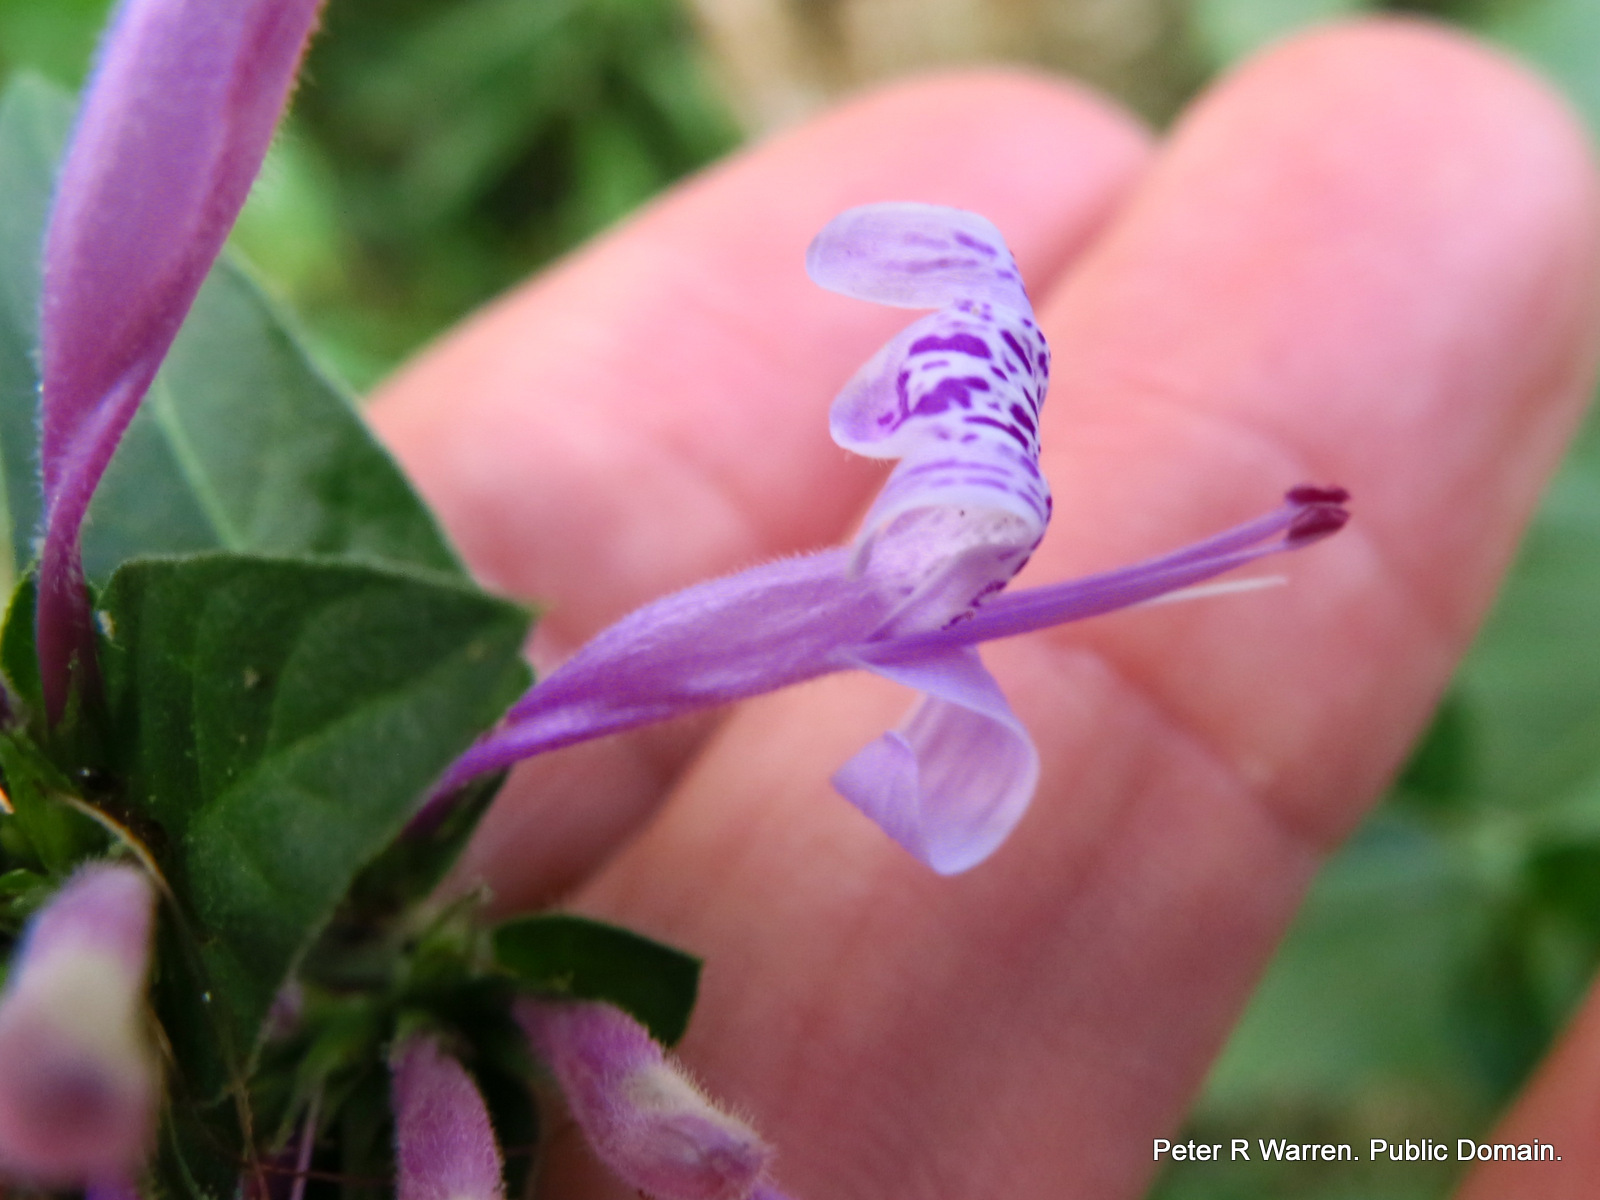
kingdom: Plantae
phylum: Tracheophyta
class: Magnoliopsida
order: Lamiales
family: Acanthaceae
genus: Hypoestes
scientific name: Hypoestes aristata
